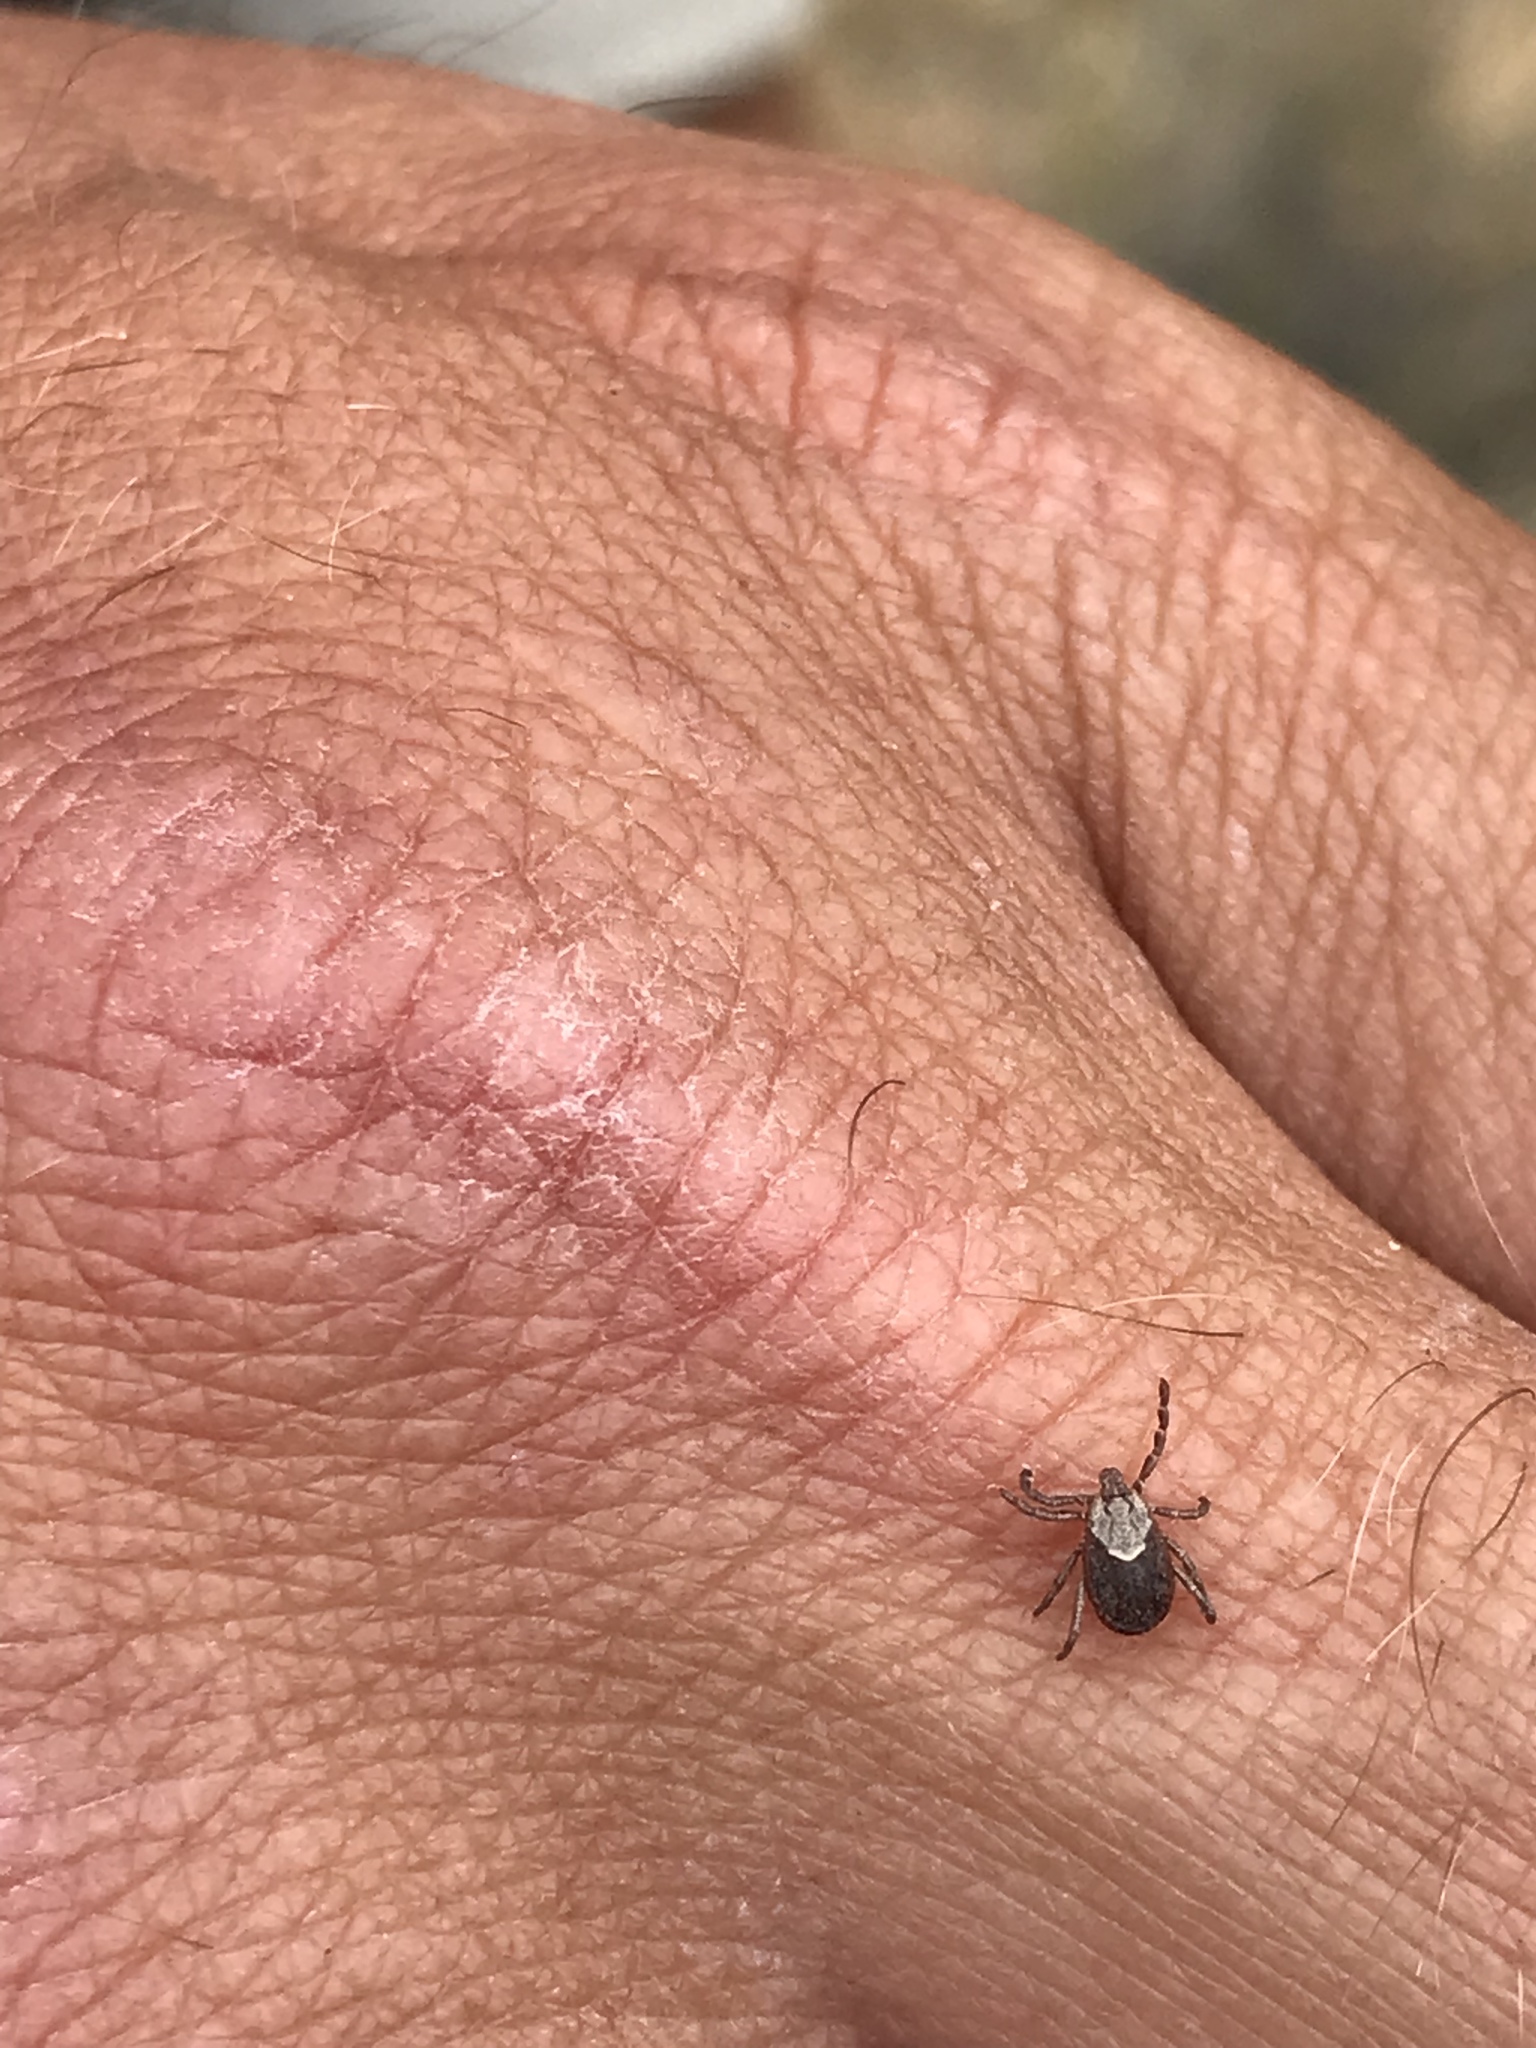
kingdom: Animalia
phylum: Arthropoda
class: Arachnida
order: Ixodida
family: Ixodidae
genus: Dermacentor
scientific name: Dermacentor variabilis
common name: American dog tick
